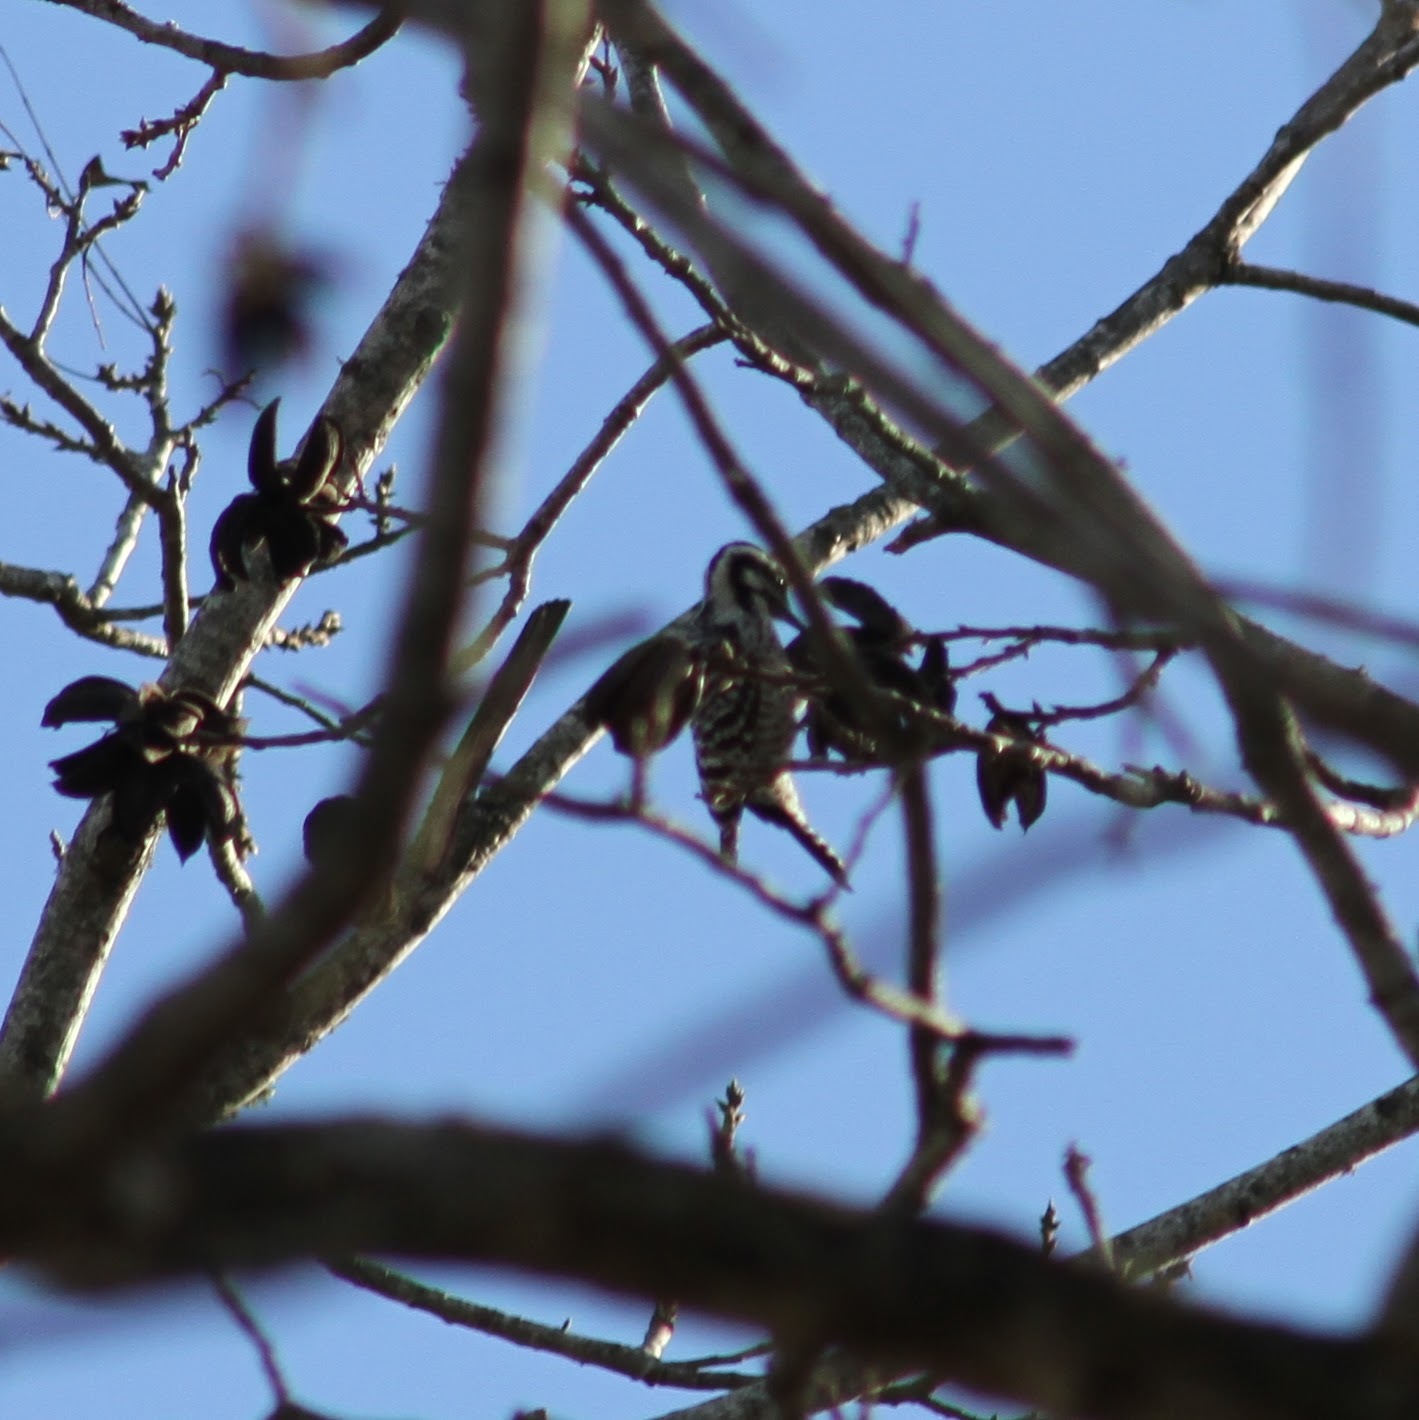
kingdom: Animalia
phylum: Chordata
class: Aves
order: Piciformes
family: Picidae
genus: Dryobates
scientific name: Dryobates scalaris
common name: Ladder-backed woodpecker
